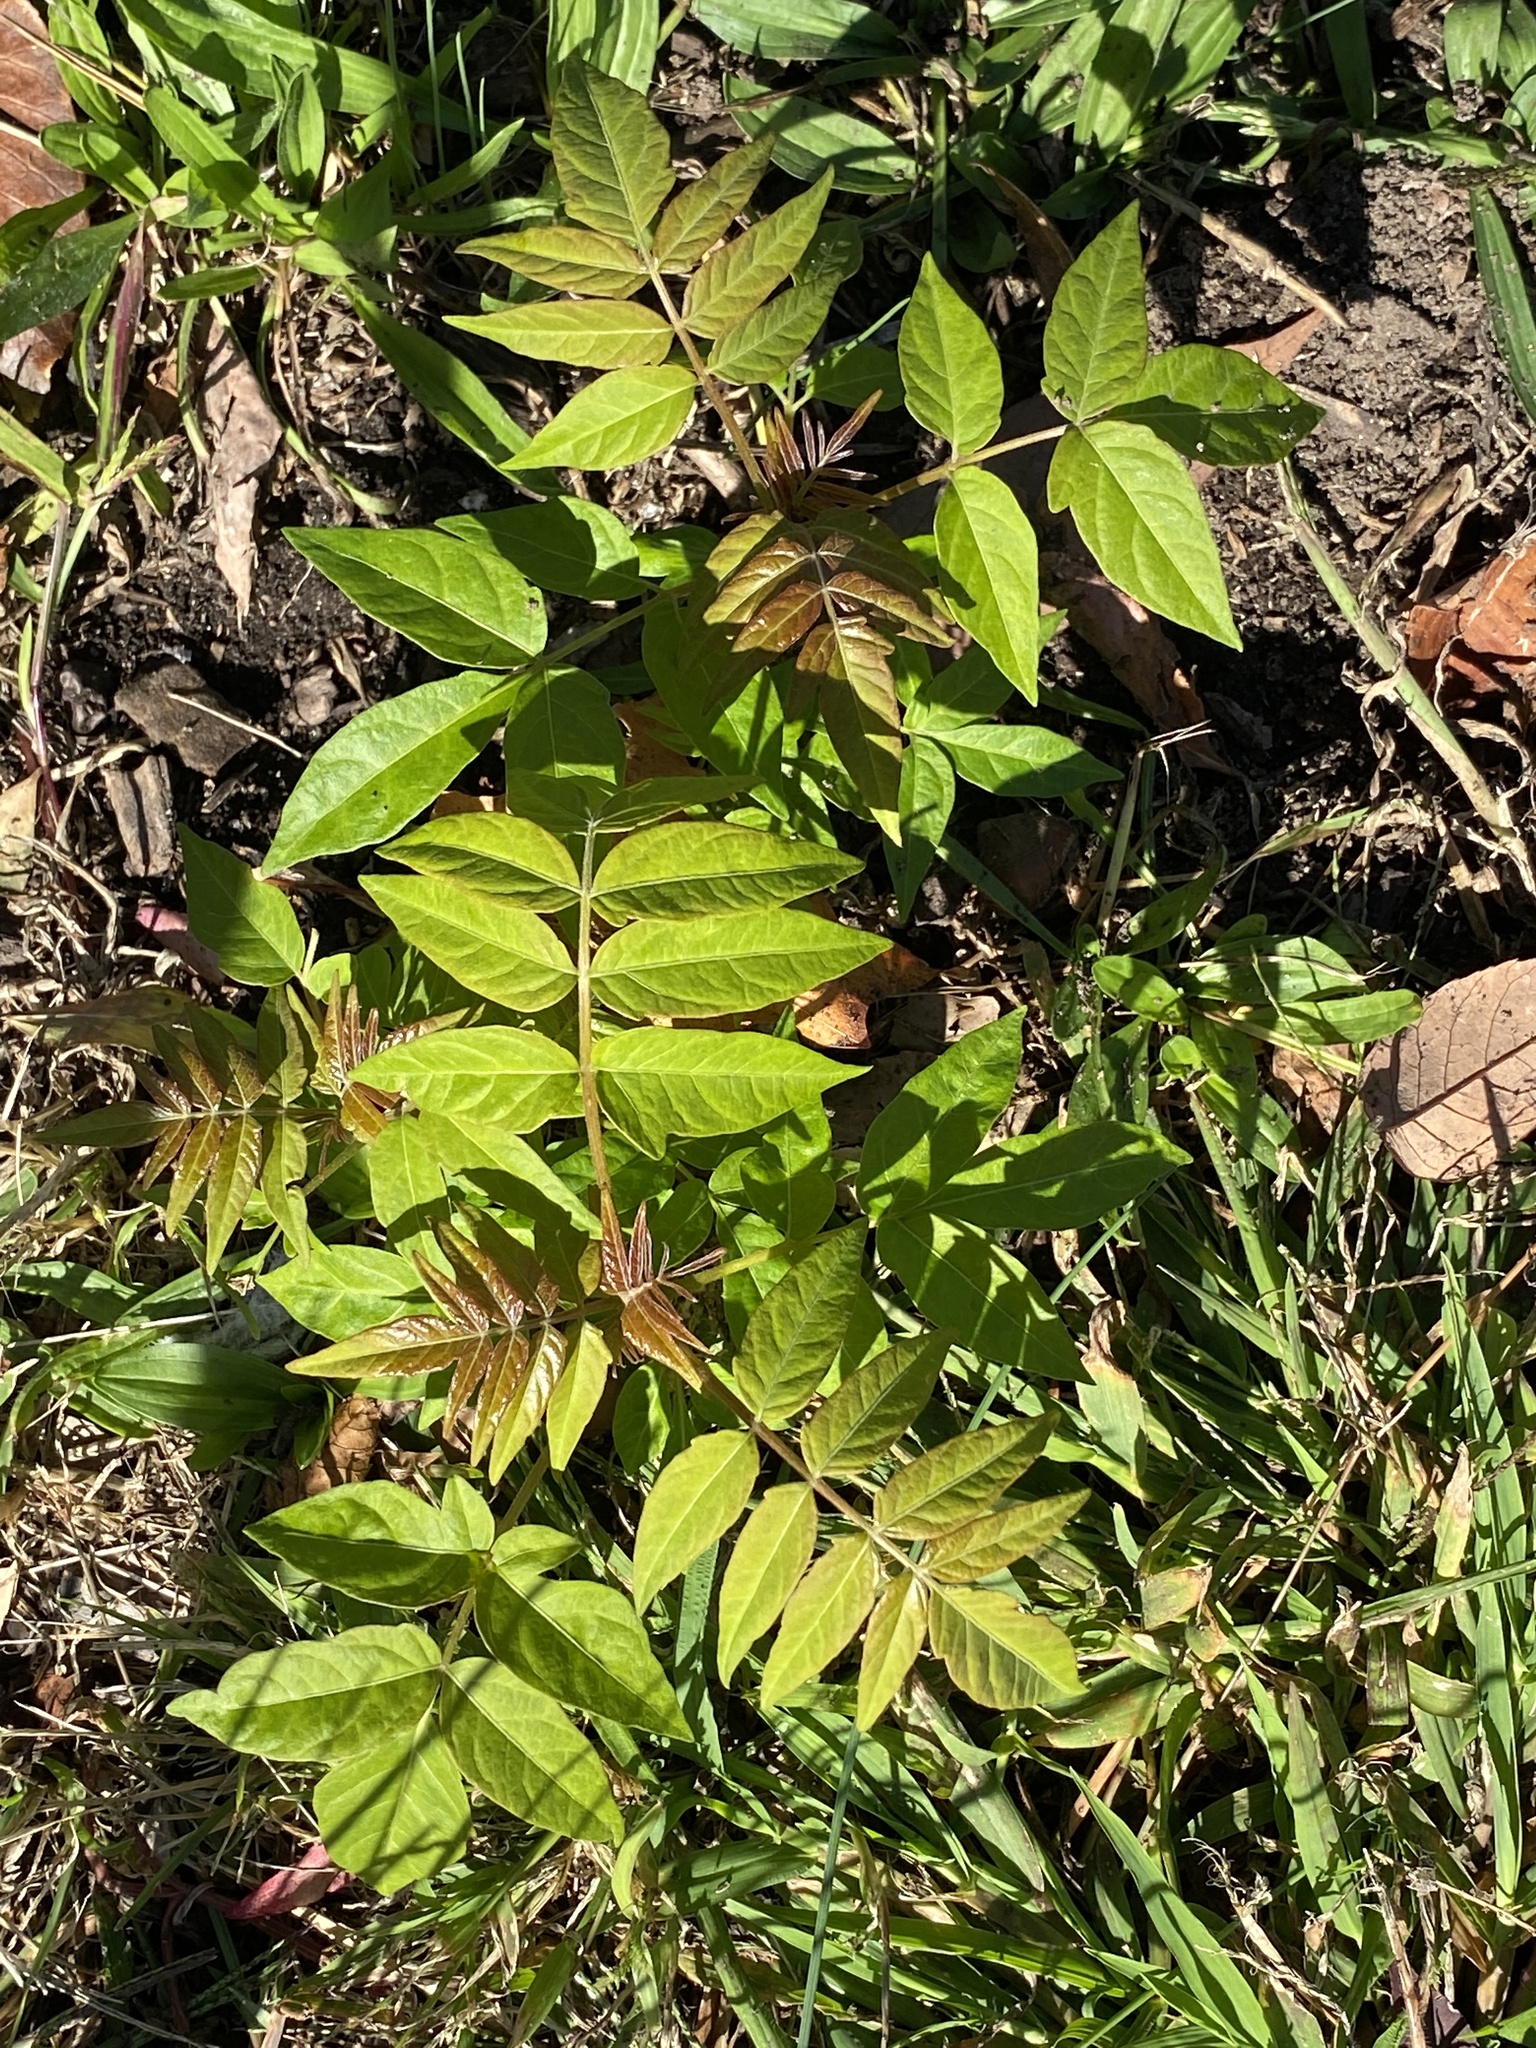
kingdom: Plantae
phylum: Tracheophyta
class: Magnoliopsida
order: Sapindales
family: Simaroubaceae
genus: Ailanthus
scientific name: Ailanthus altissima
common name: Tree-of-heaven
